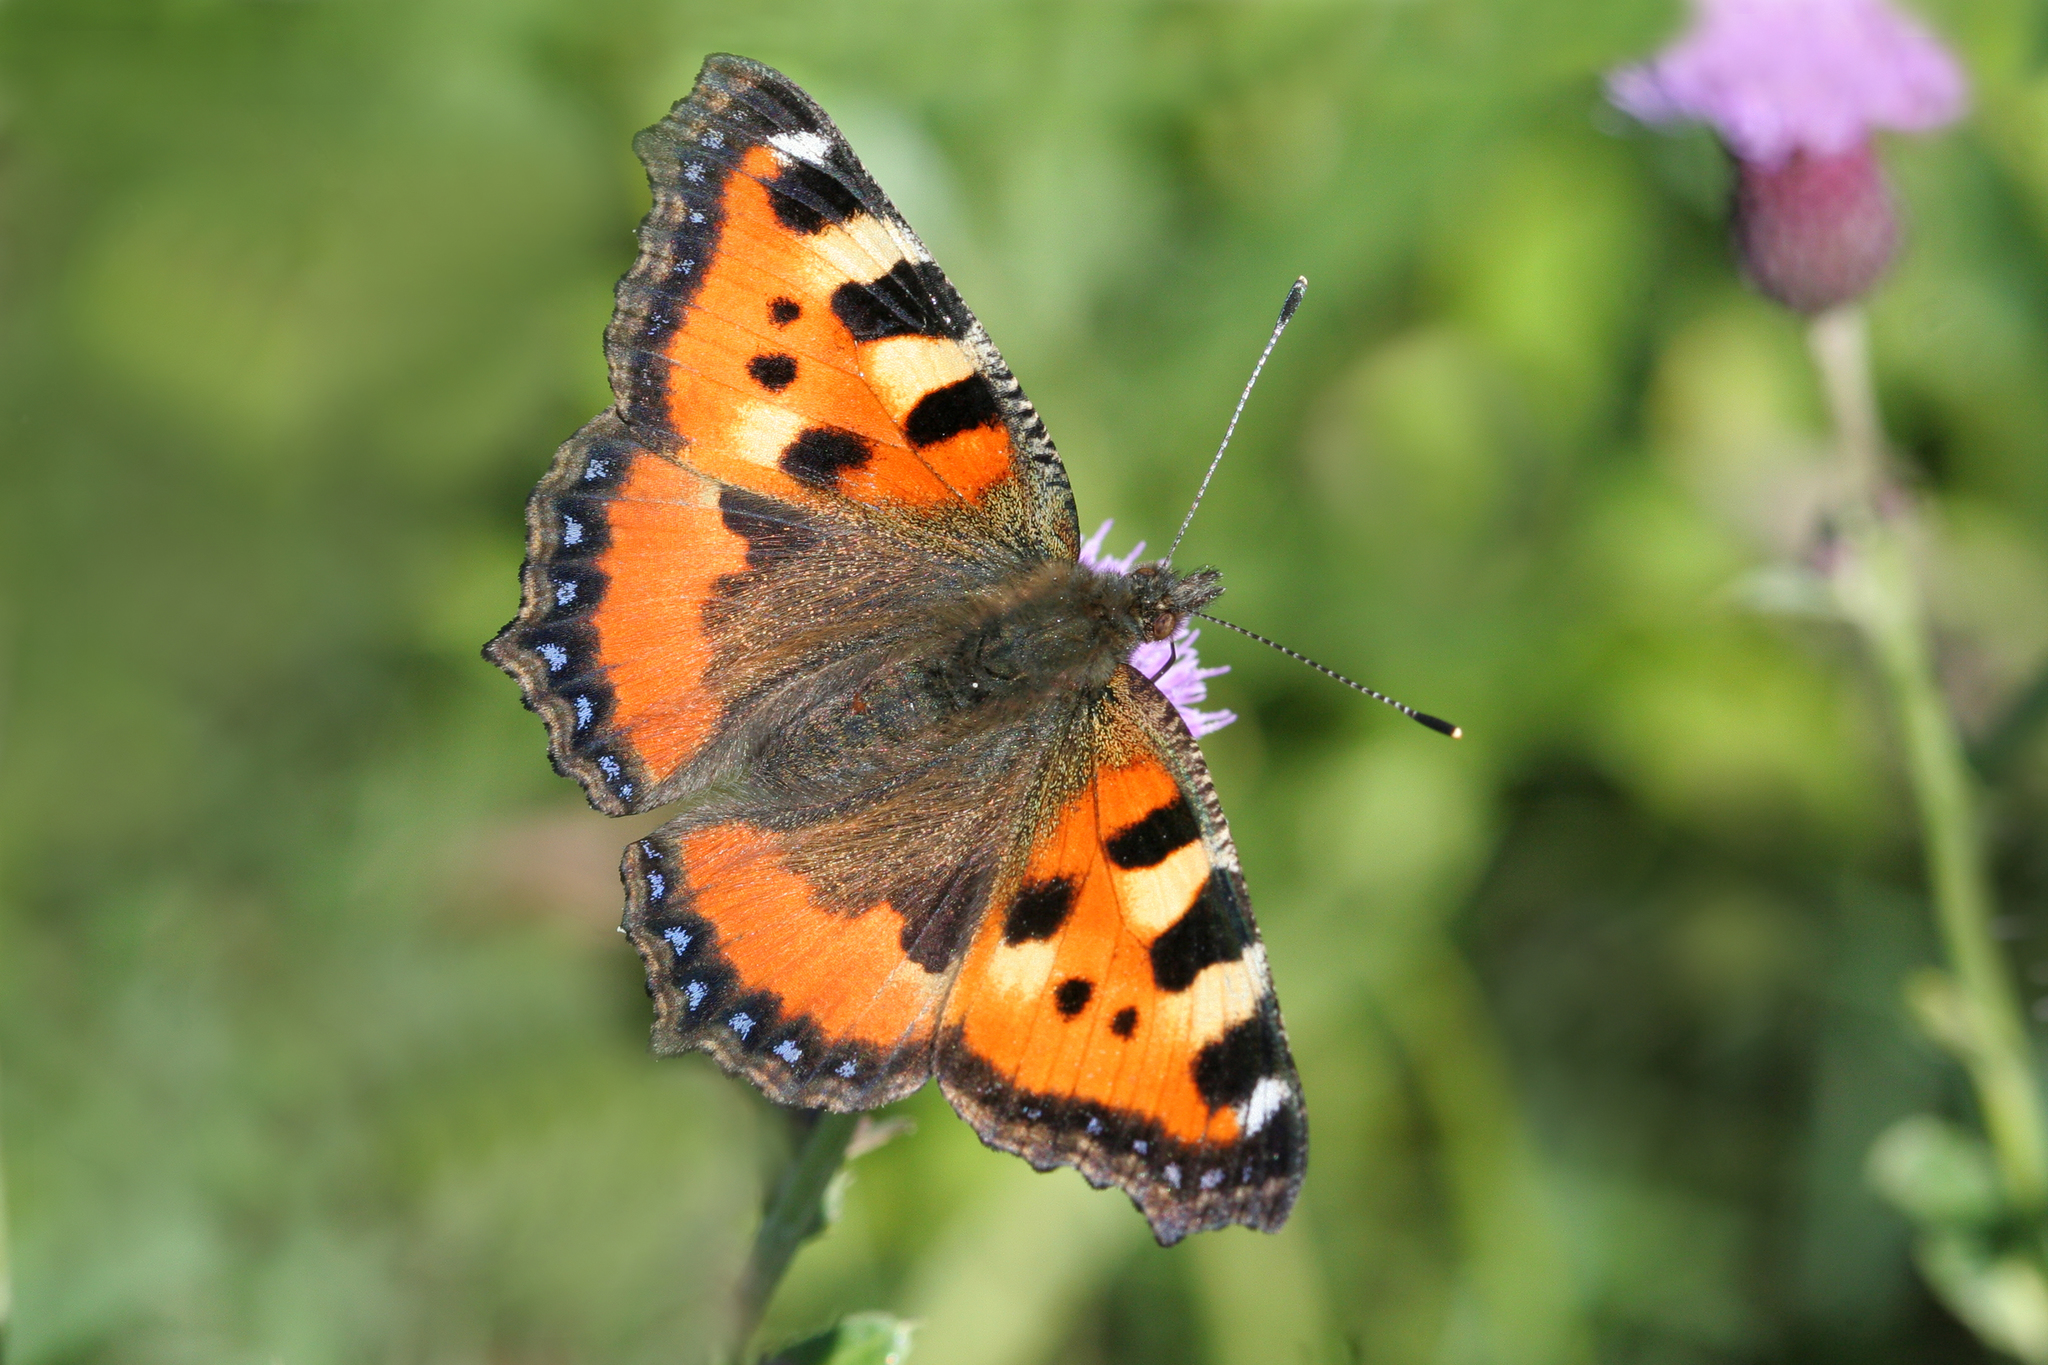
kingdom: Animalia
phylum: Arthropoda
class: Insecta
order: Lepidoptera
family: Nymphalidae
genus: Aglais
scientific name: Aglais urticae
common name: Small tortoiseshell
